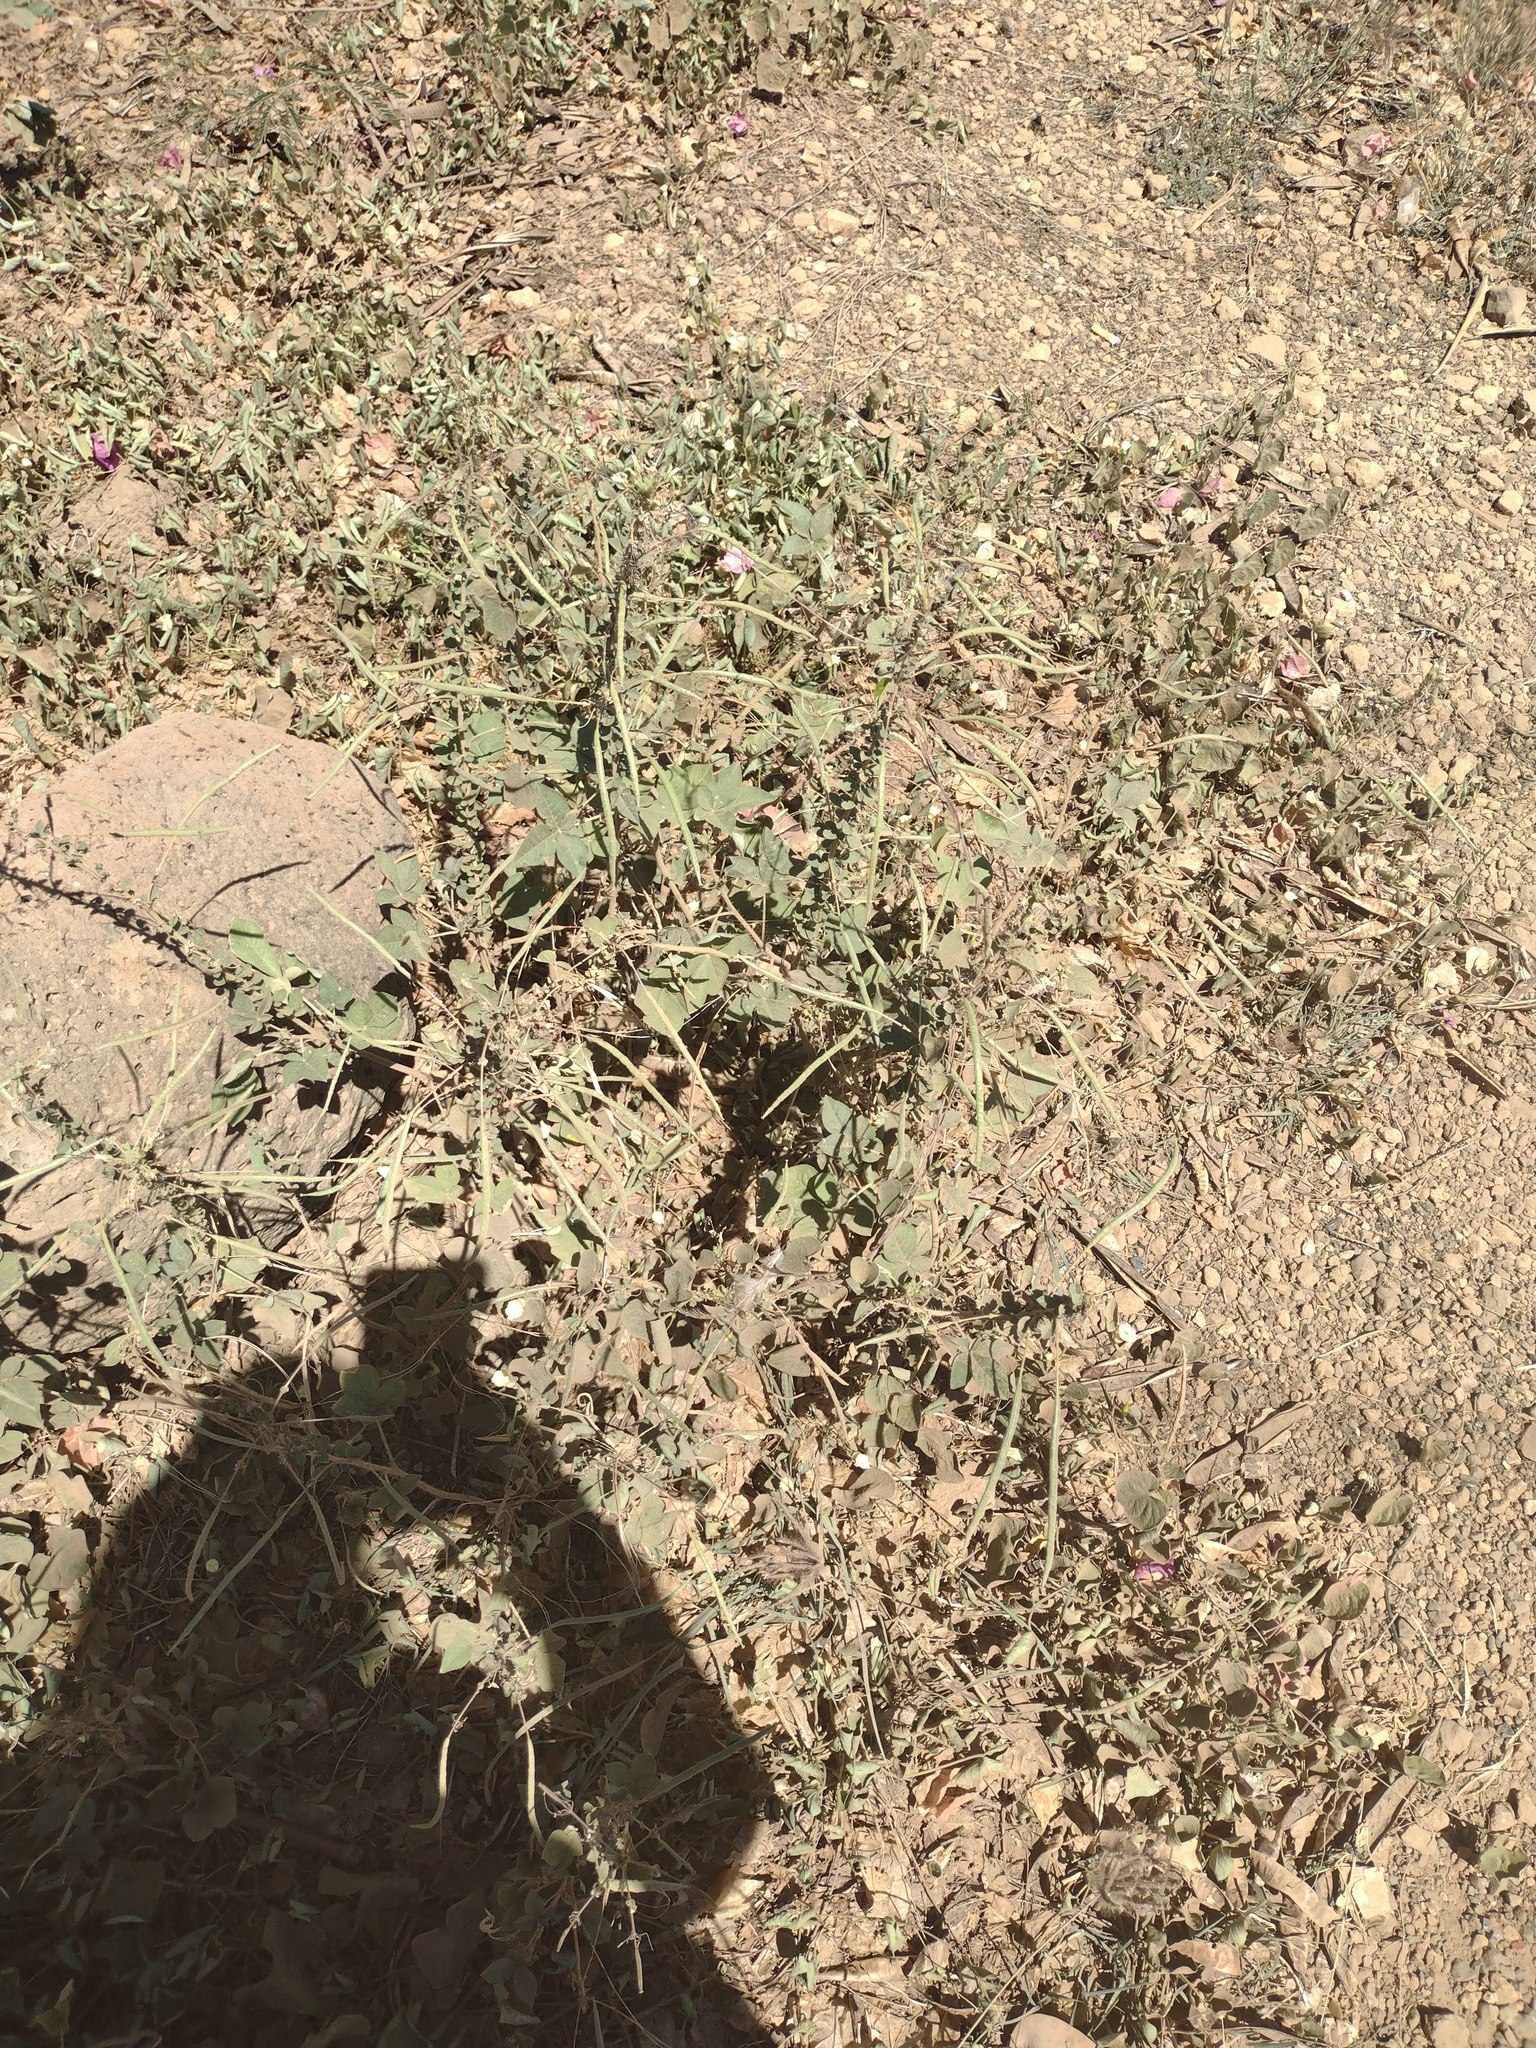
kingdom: Plantae
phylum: Tracheophyta
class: Magnoliopsida
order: Brassicales
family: Cleomaceae
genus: Gynandropsis
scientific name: Gynandropsis gynandra
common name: Spiderwisp
